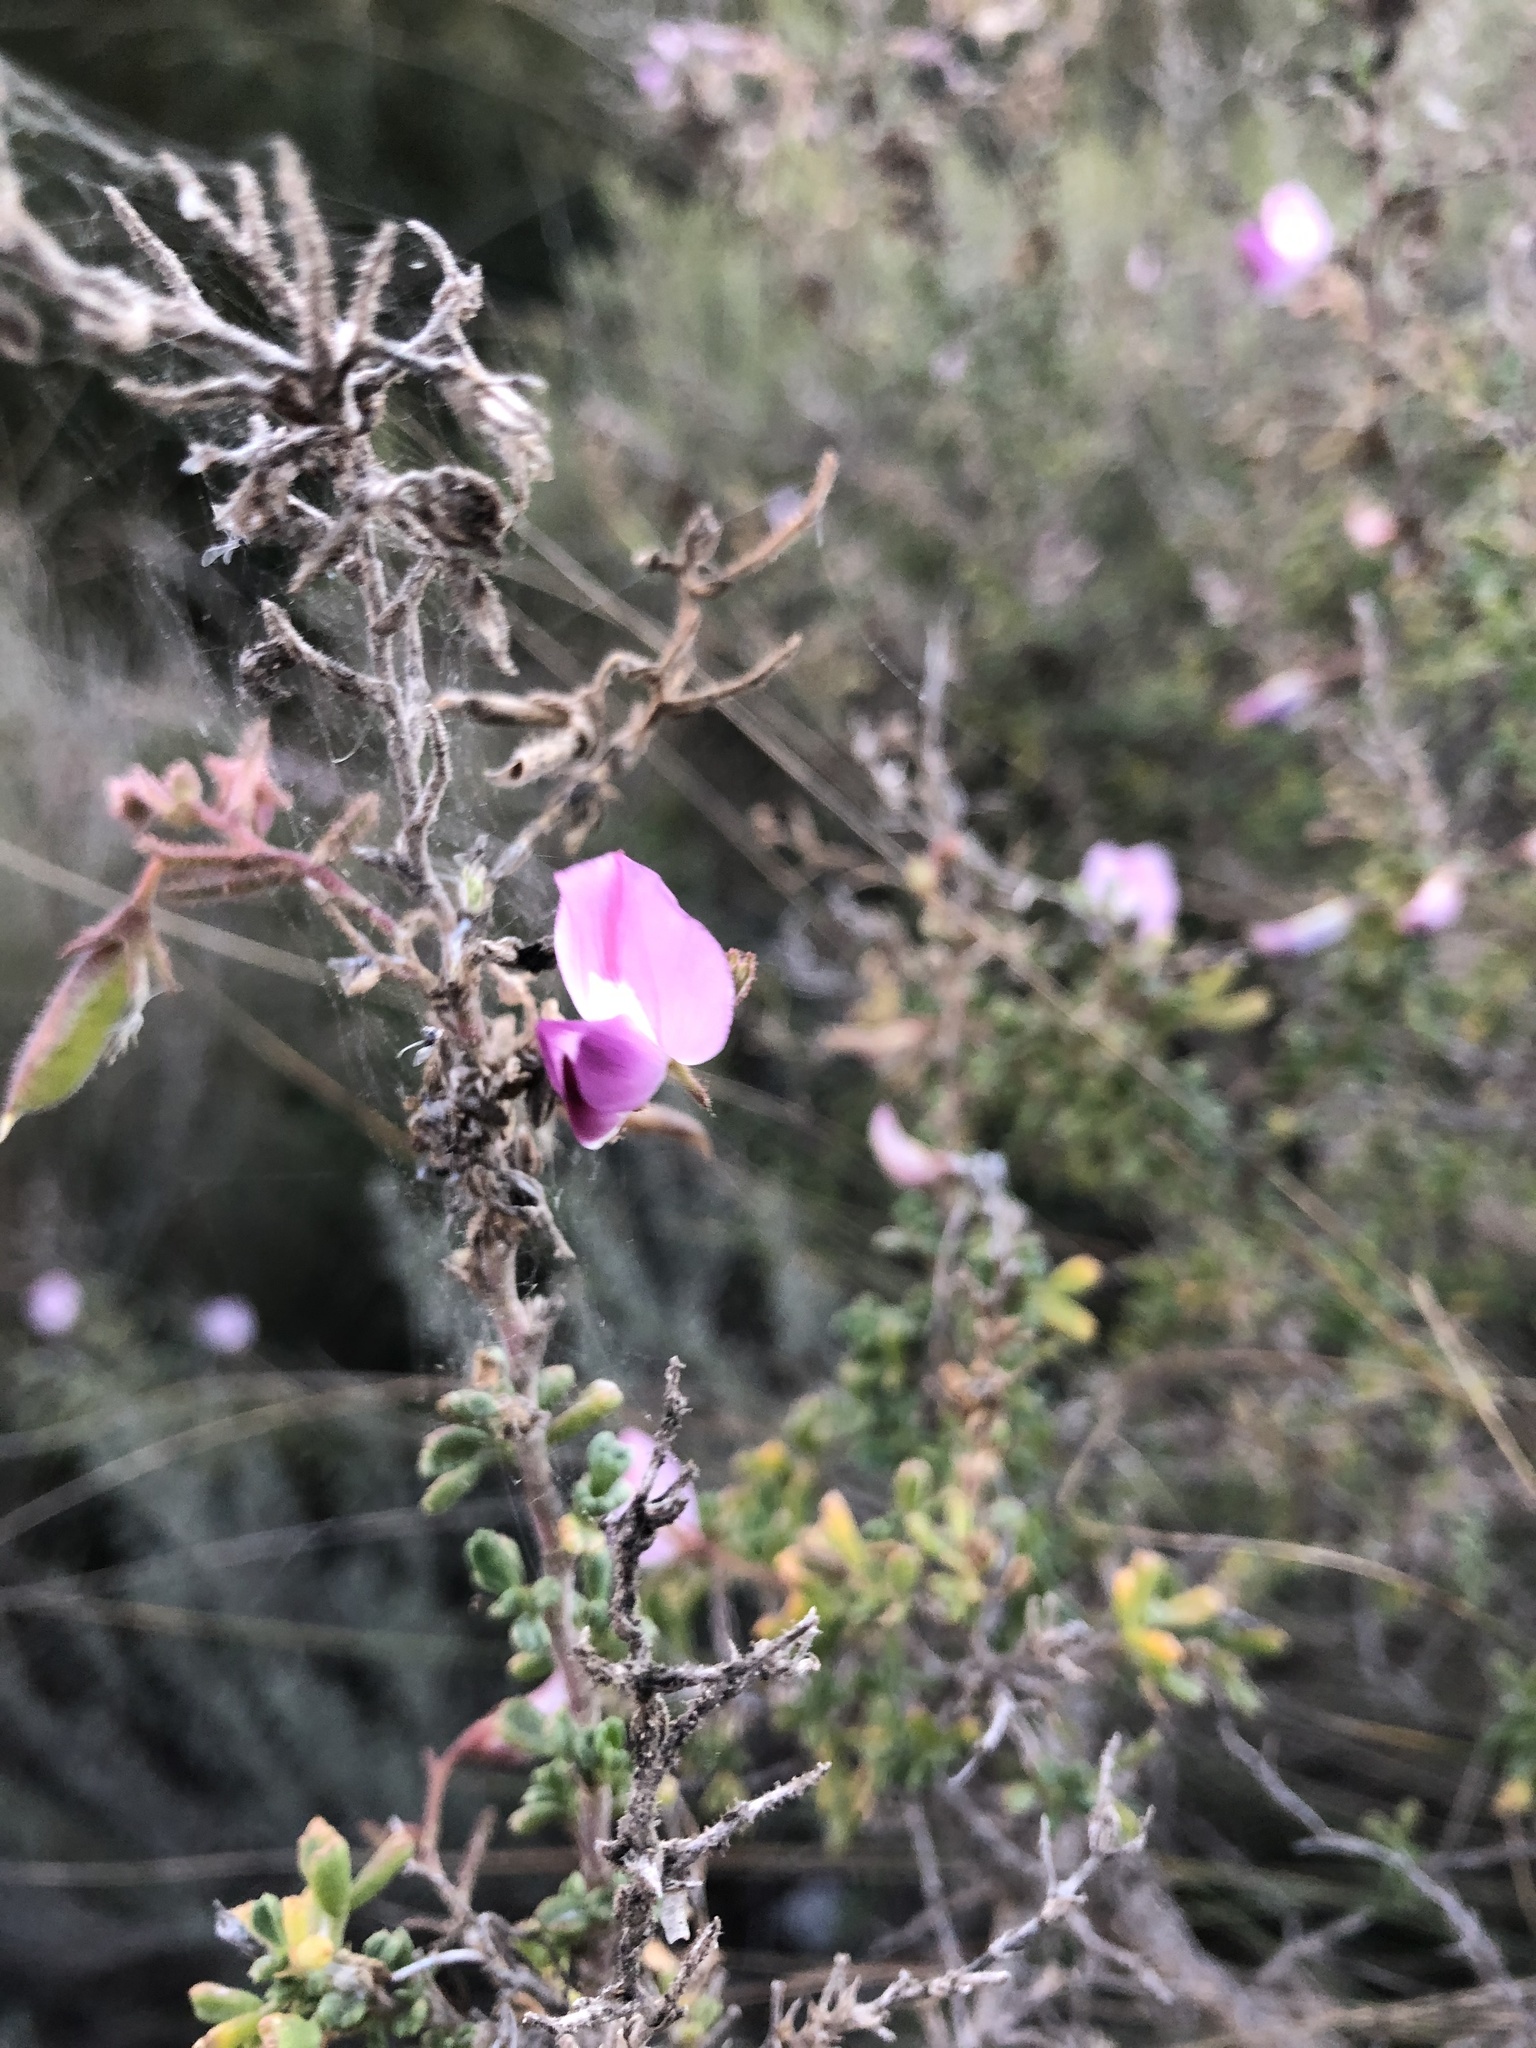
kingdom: Plantae
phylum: Tracheophyta
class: Magnoliopsida
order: Fabales
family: Fabaceae
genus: Ononis
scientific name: Ononis tridentata
